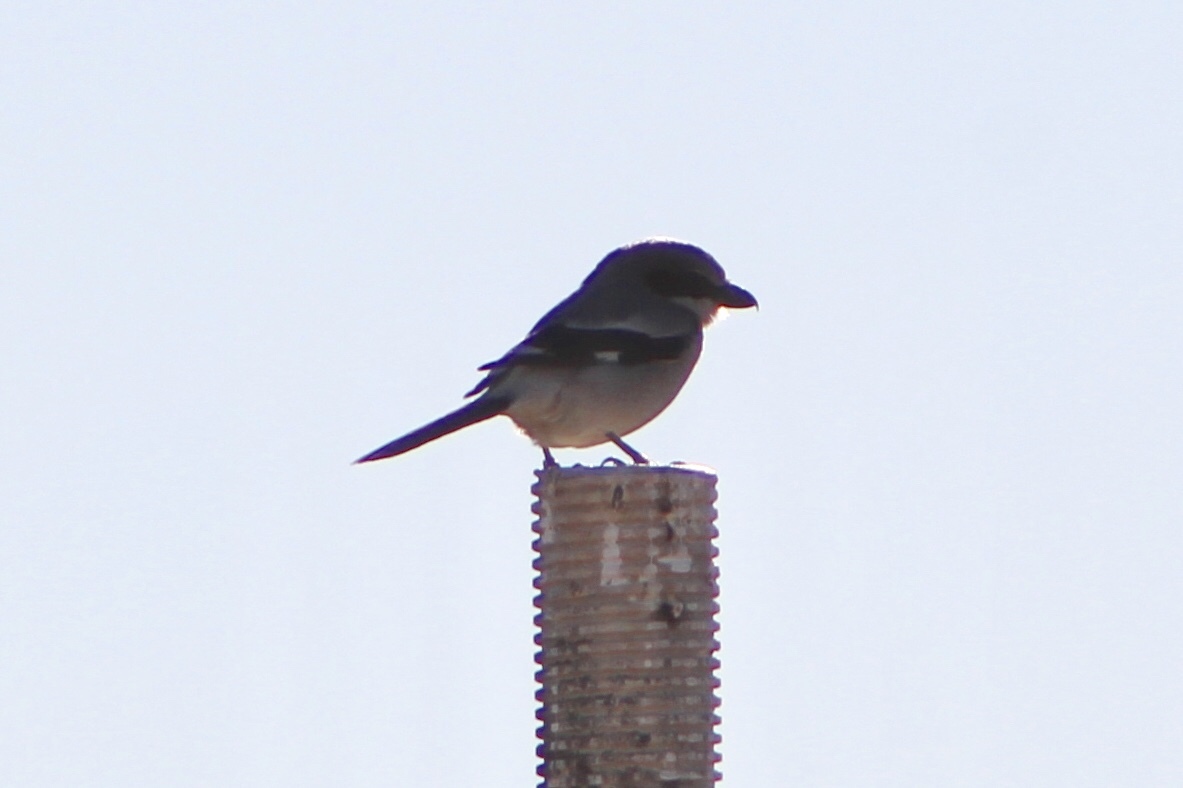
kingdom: Animalia
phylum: Chordata
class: Aves
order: Passeriformes
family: Laniidae
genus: Lanius
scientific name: Lanius ludovicianus
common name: Loggerhead shrike
